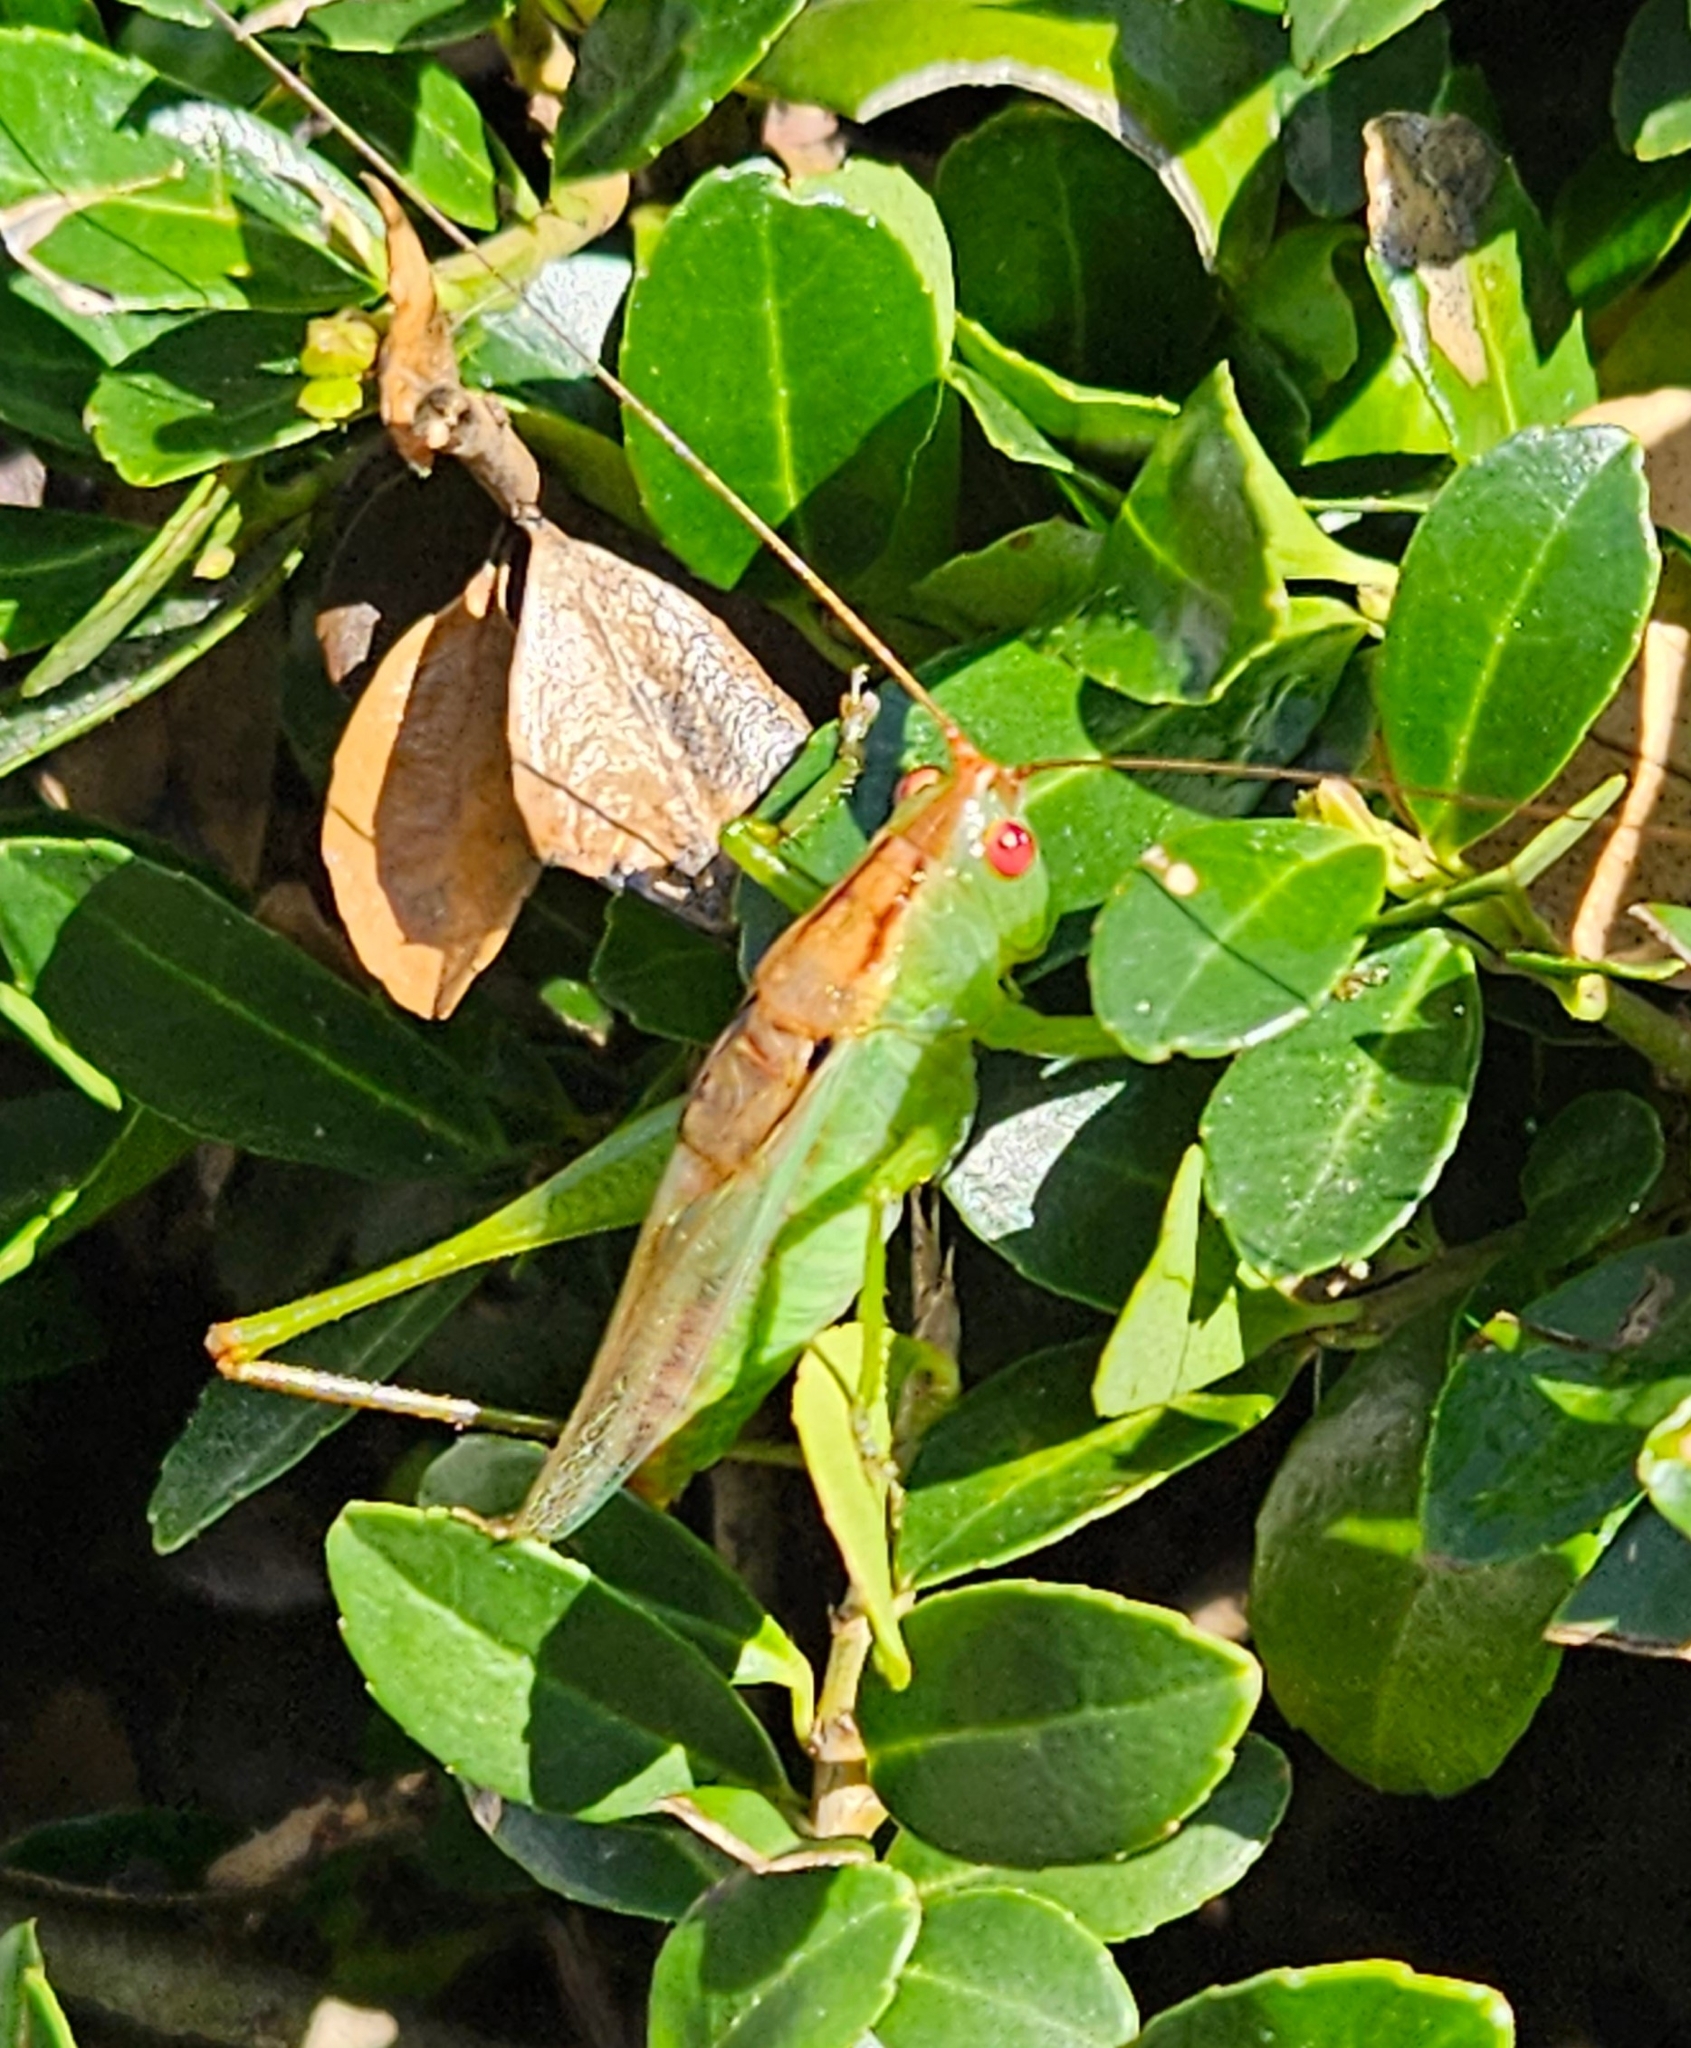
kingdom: Animalia
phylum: Arthropoda
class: Insecta
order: Orthoptera
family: Tettigoniidae
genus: Conocephalus
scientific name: Conocephalus fasciatus
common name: Slender meadow katydid
